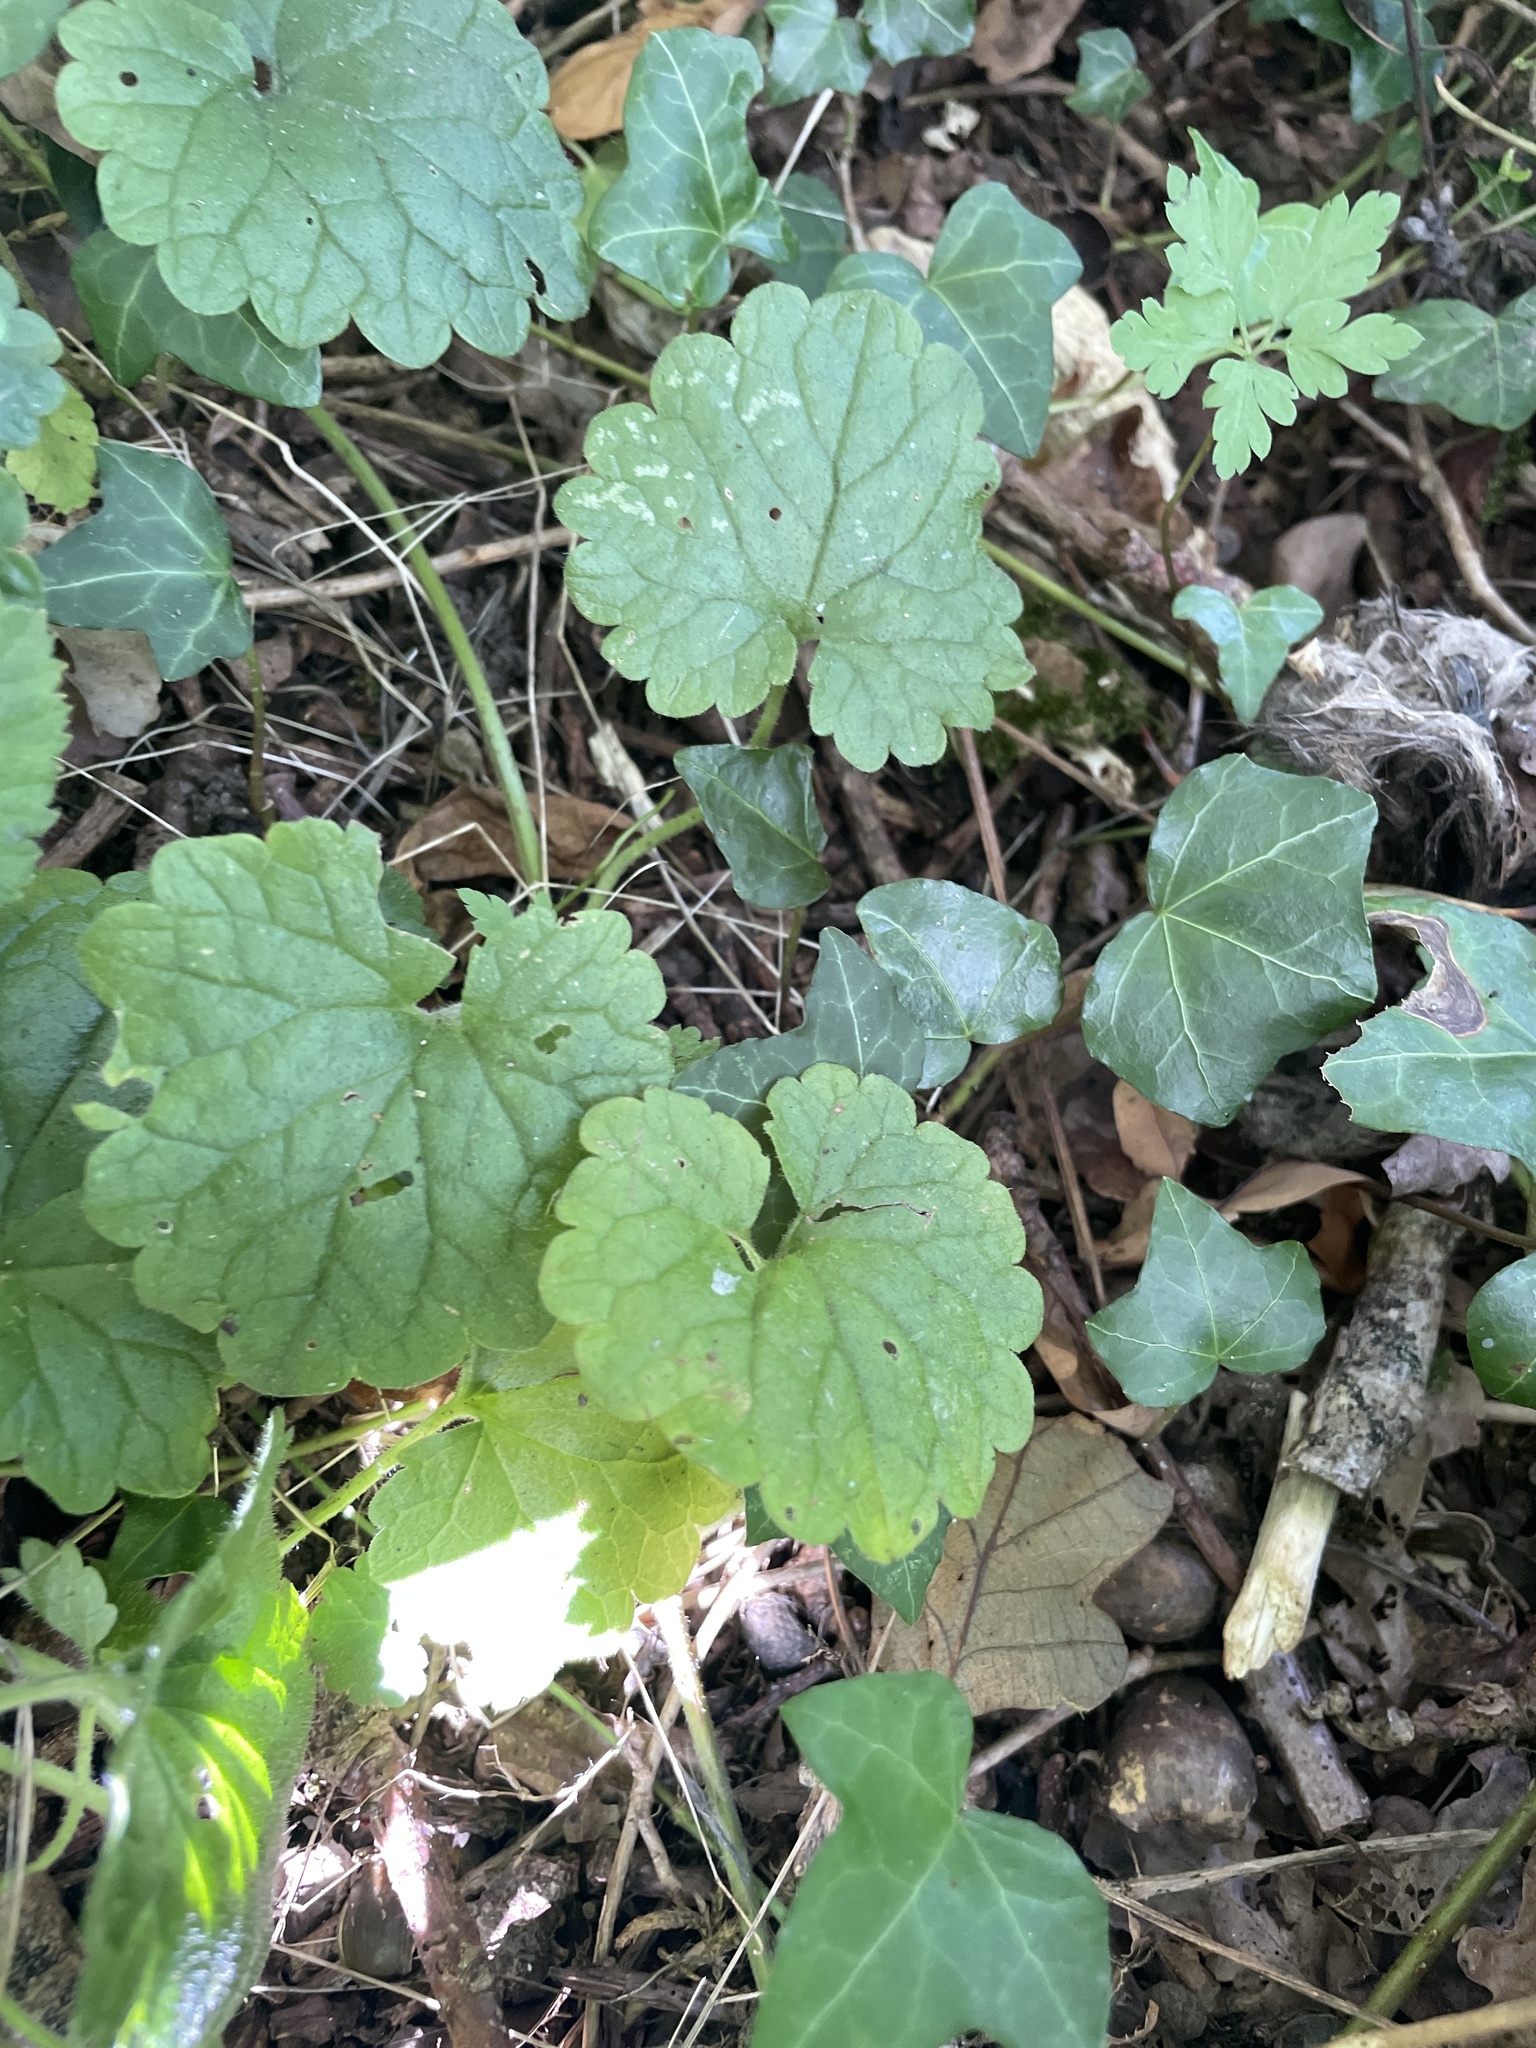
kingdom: Plantae
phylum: Tracheophyta
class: Magnoliopsida
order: Lamiales
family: Lamiaceae
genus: Glechoma
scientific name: Glechoma hederacea
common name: Ground ivy
